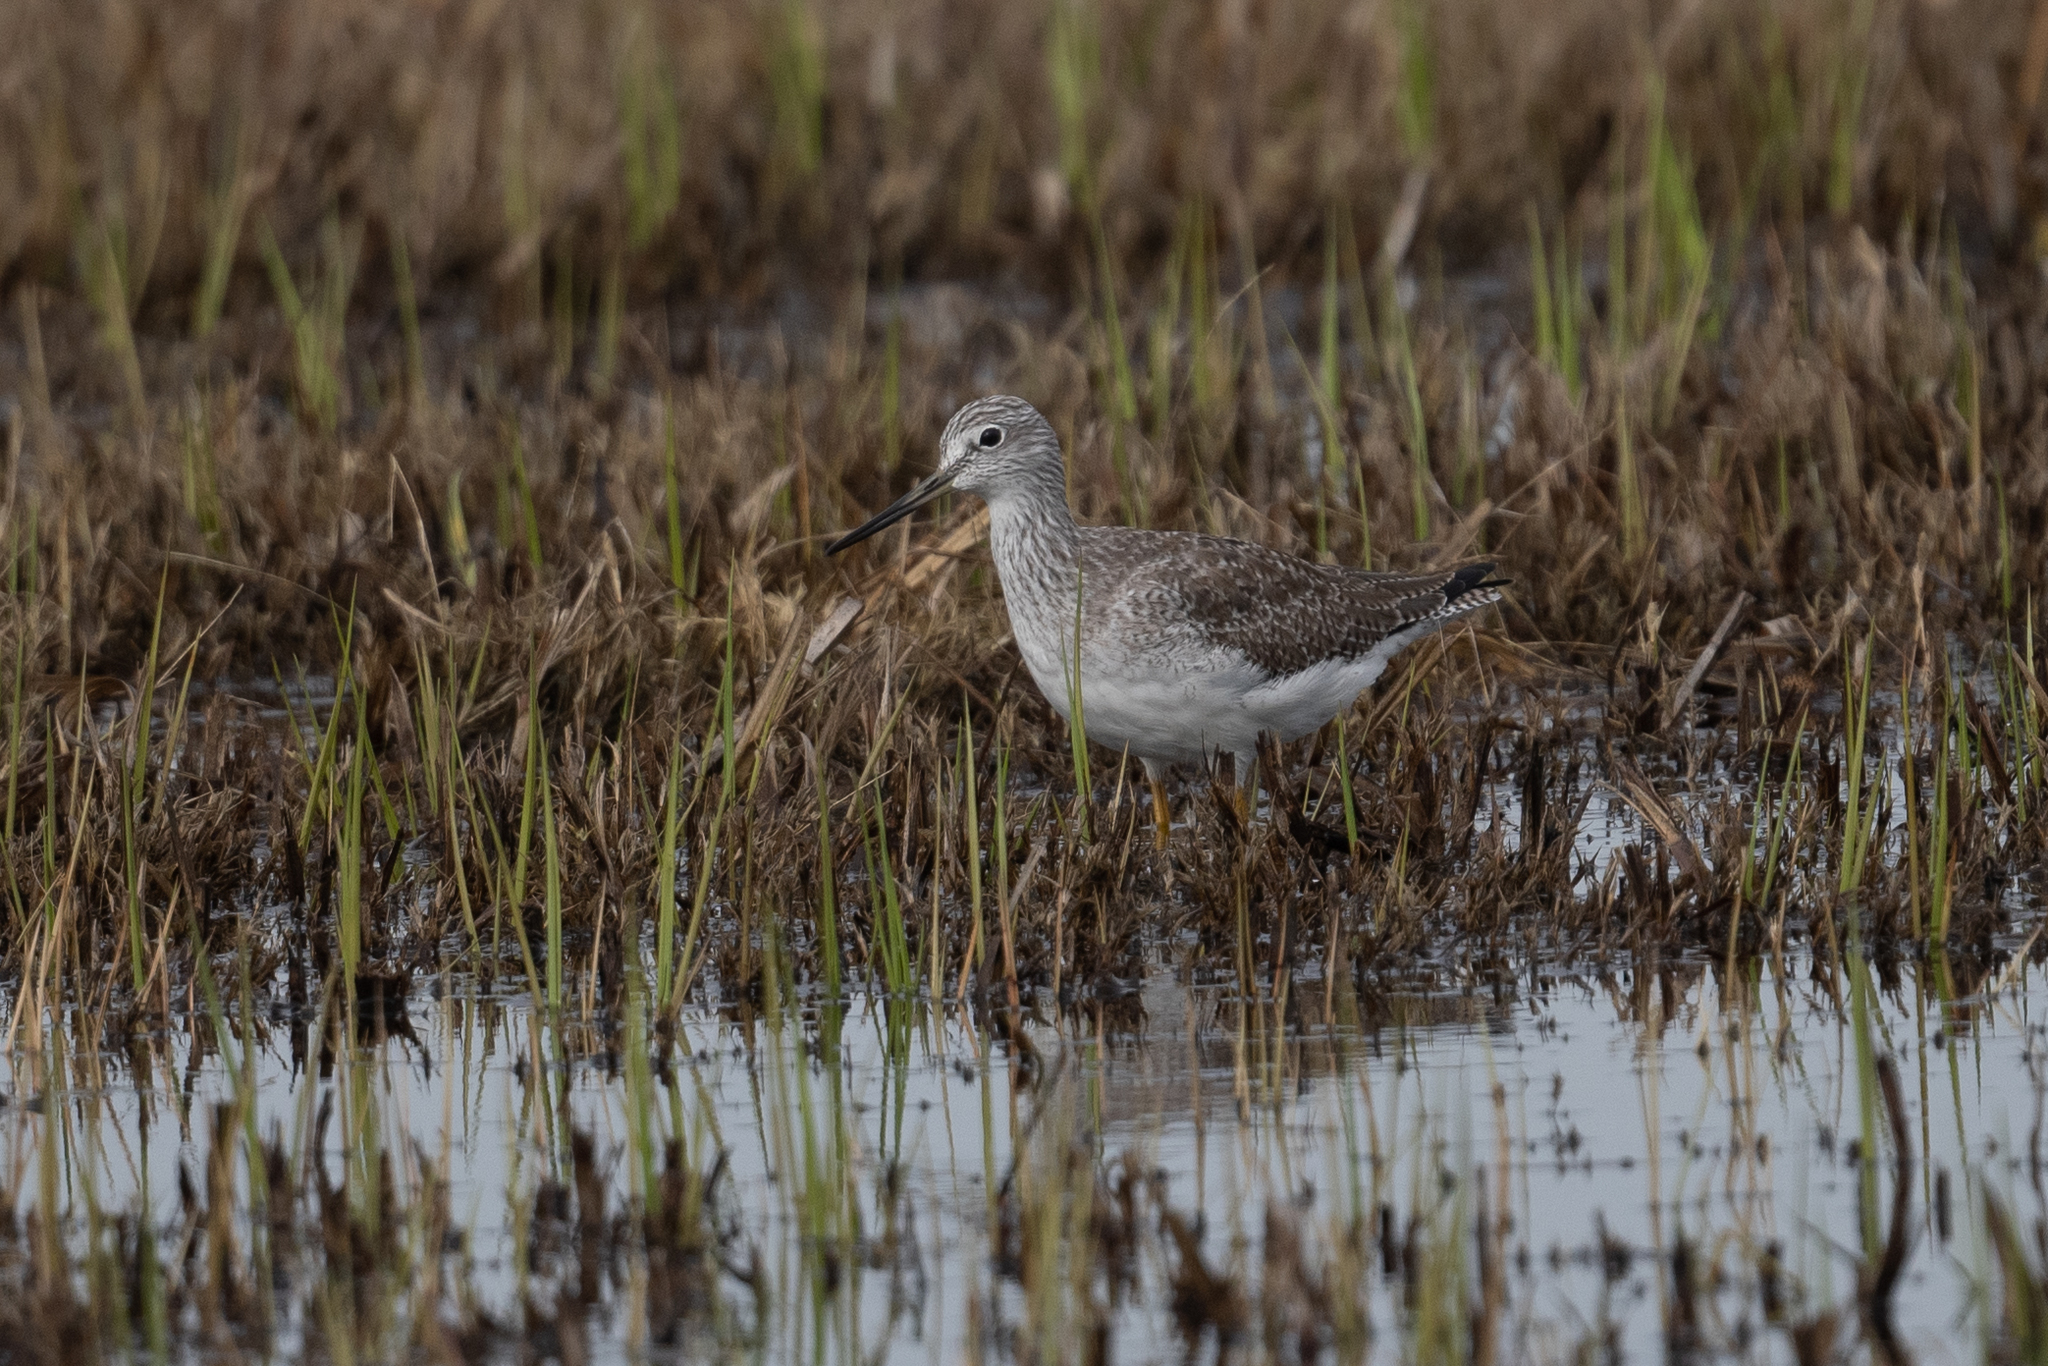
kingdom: Animalia
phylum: Chordata
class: Aves
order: Charadriiformes
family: Scolopacidae
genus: Tringa
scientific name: Tringa melanoleuca
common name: Greater yellowlegs
